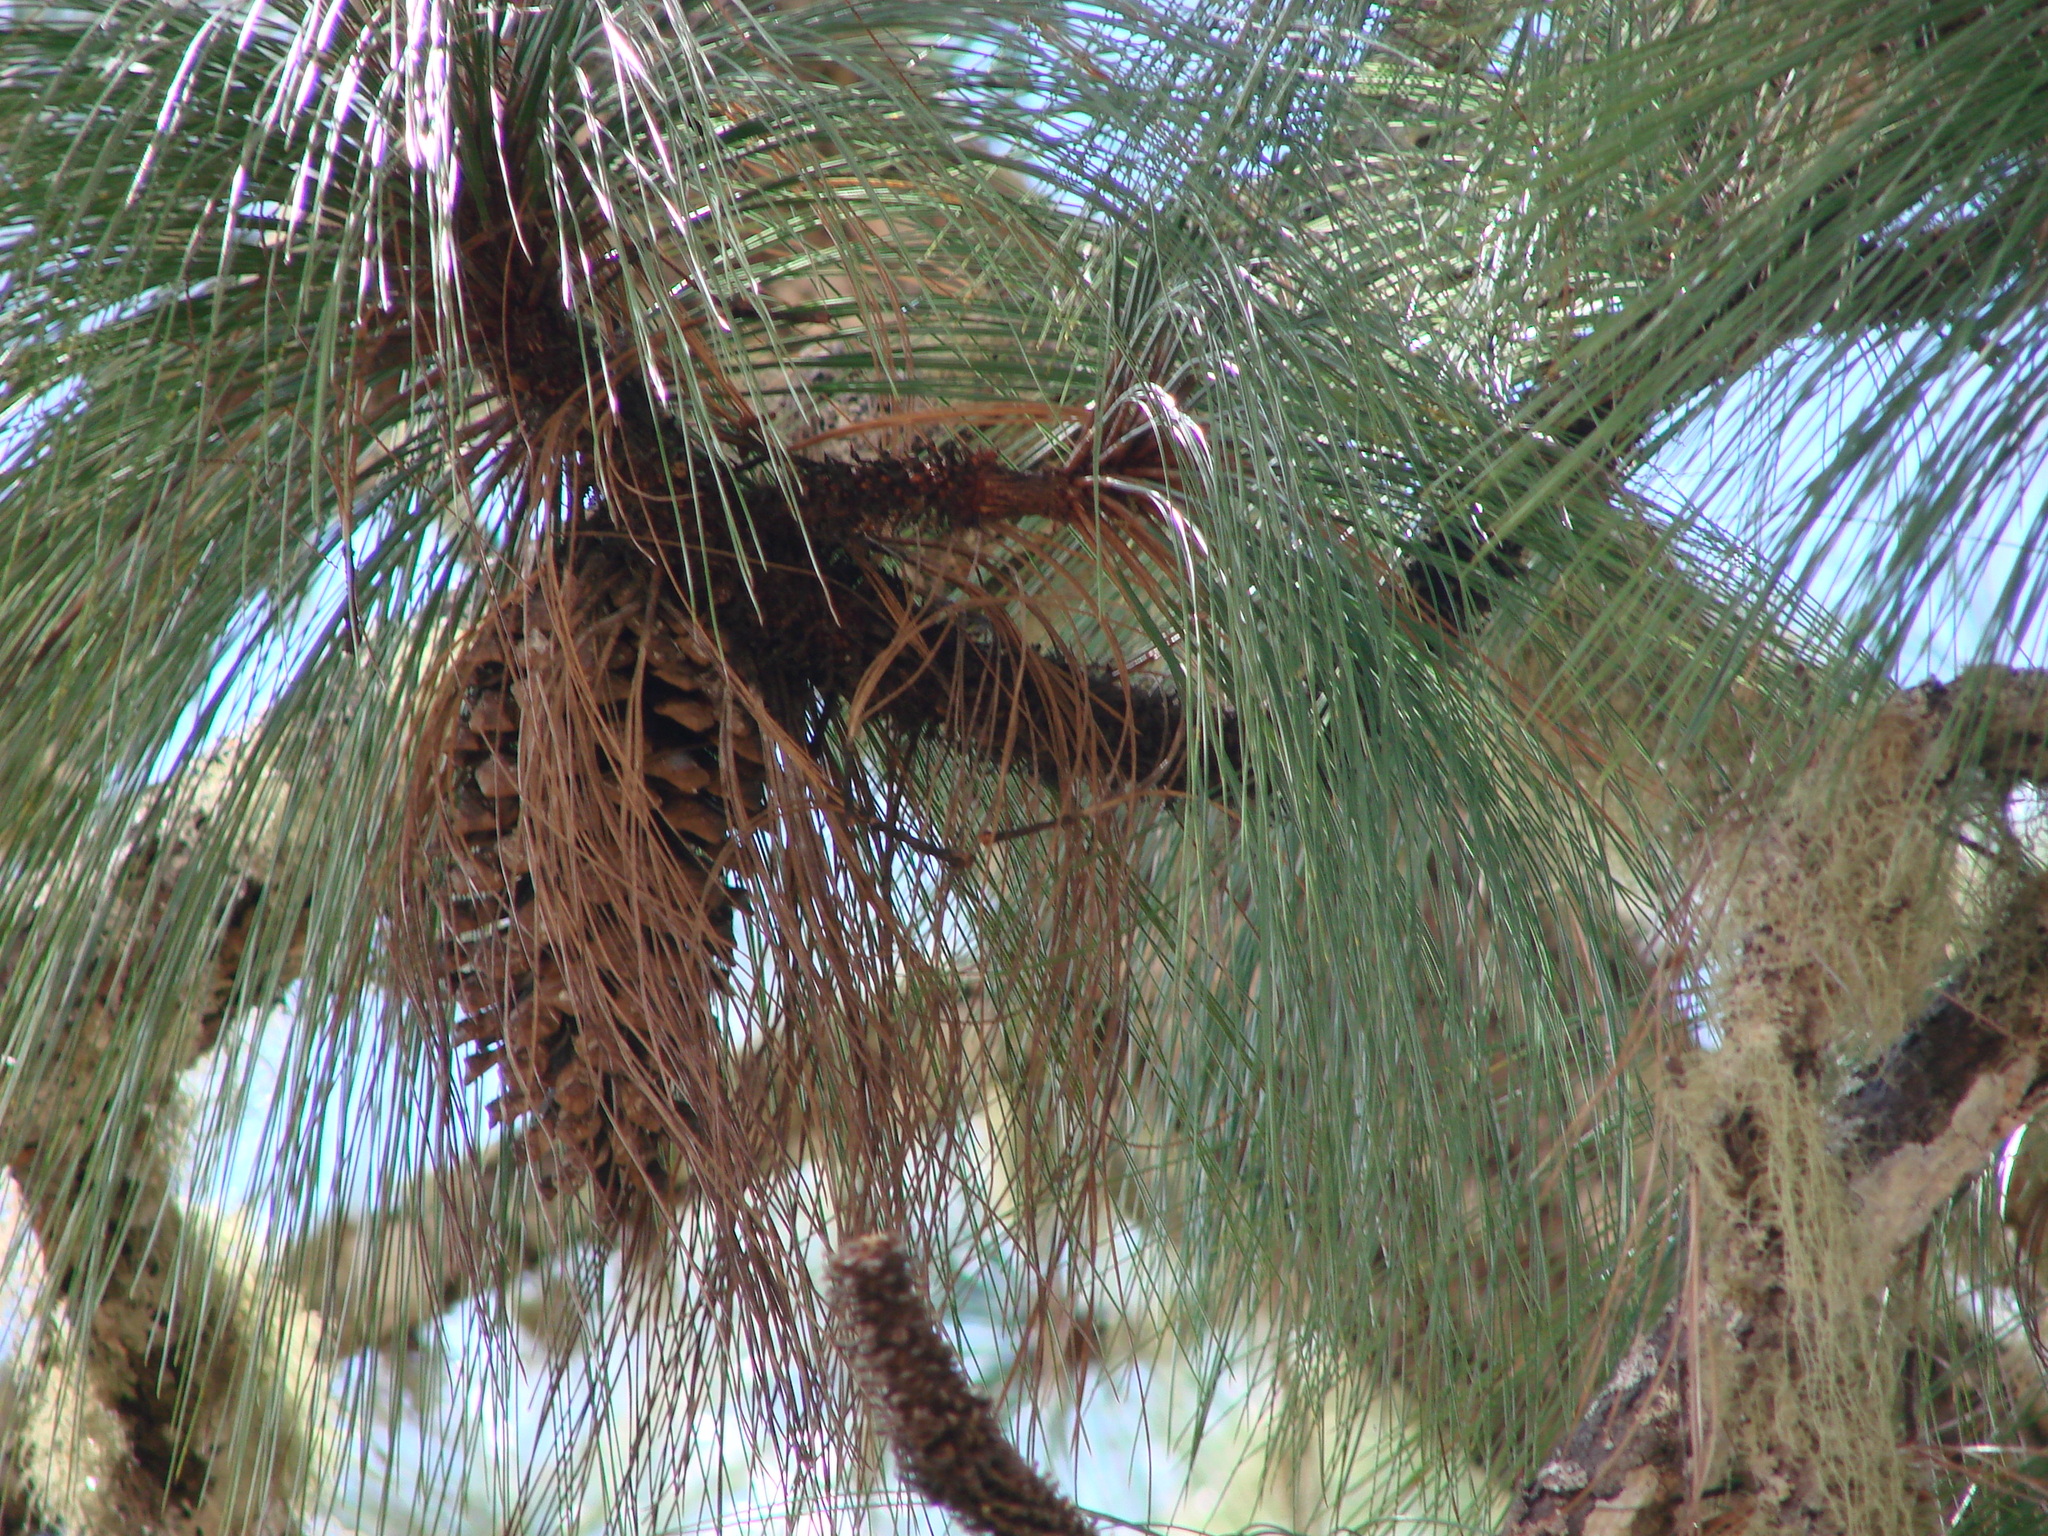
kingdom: Plantae
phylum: Tracheophyta
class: Pinopsida
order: Pinales
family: Pinaceae
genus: Pinus
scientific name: Pinus devoniana
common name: Michoacan pine
